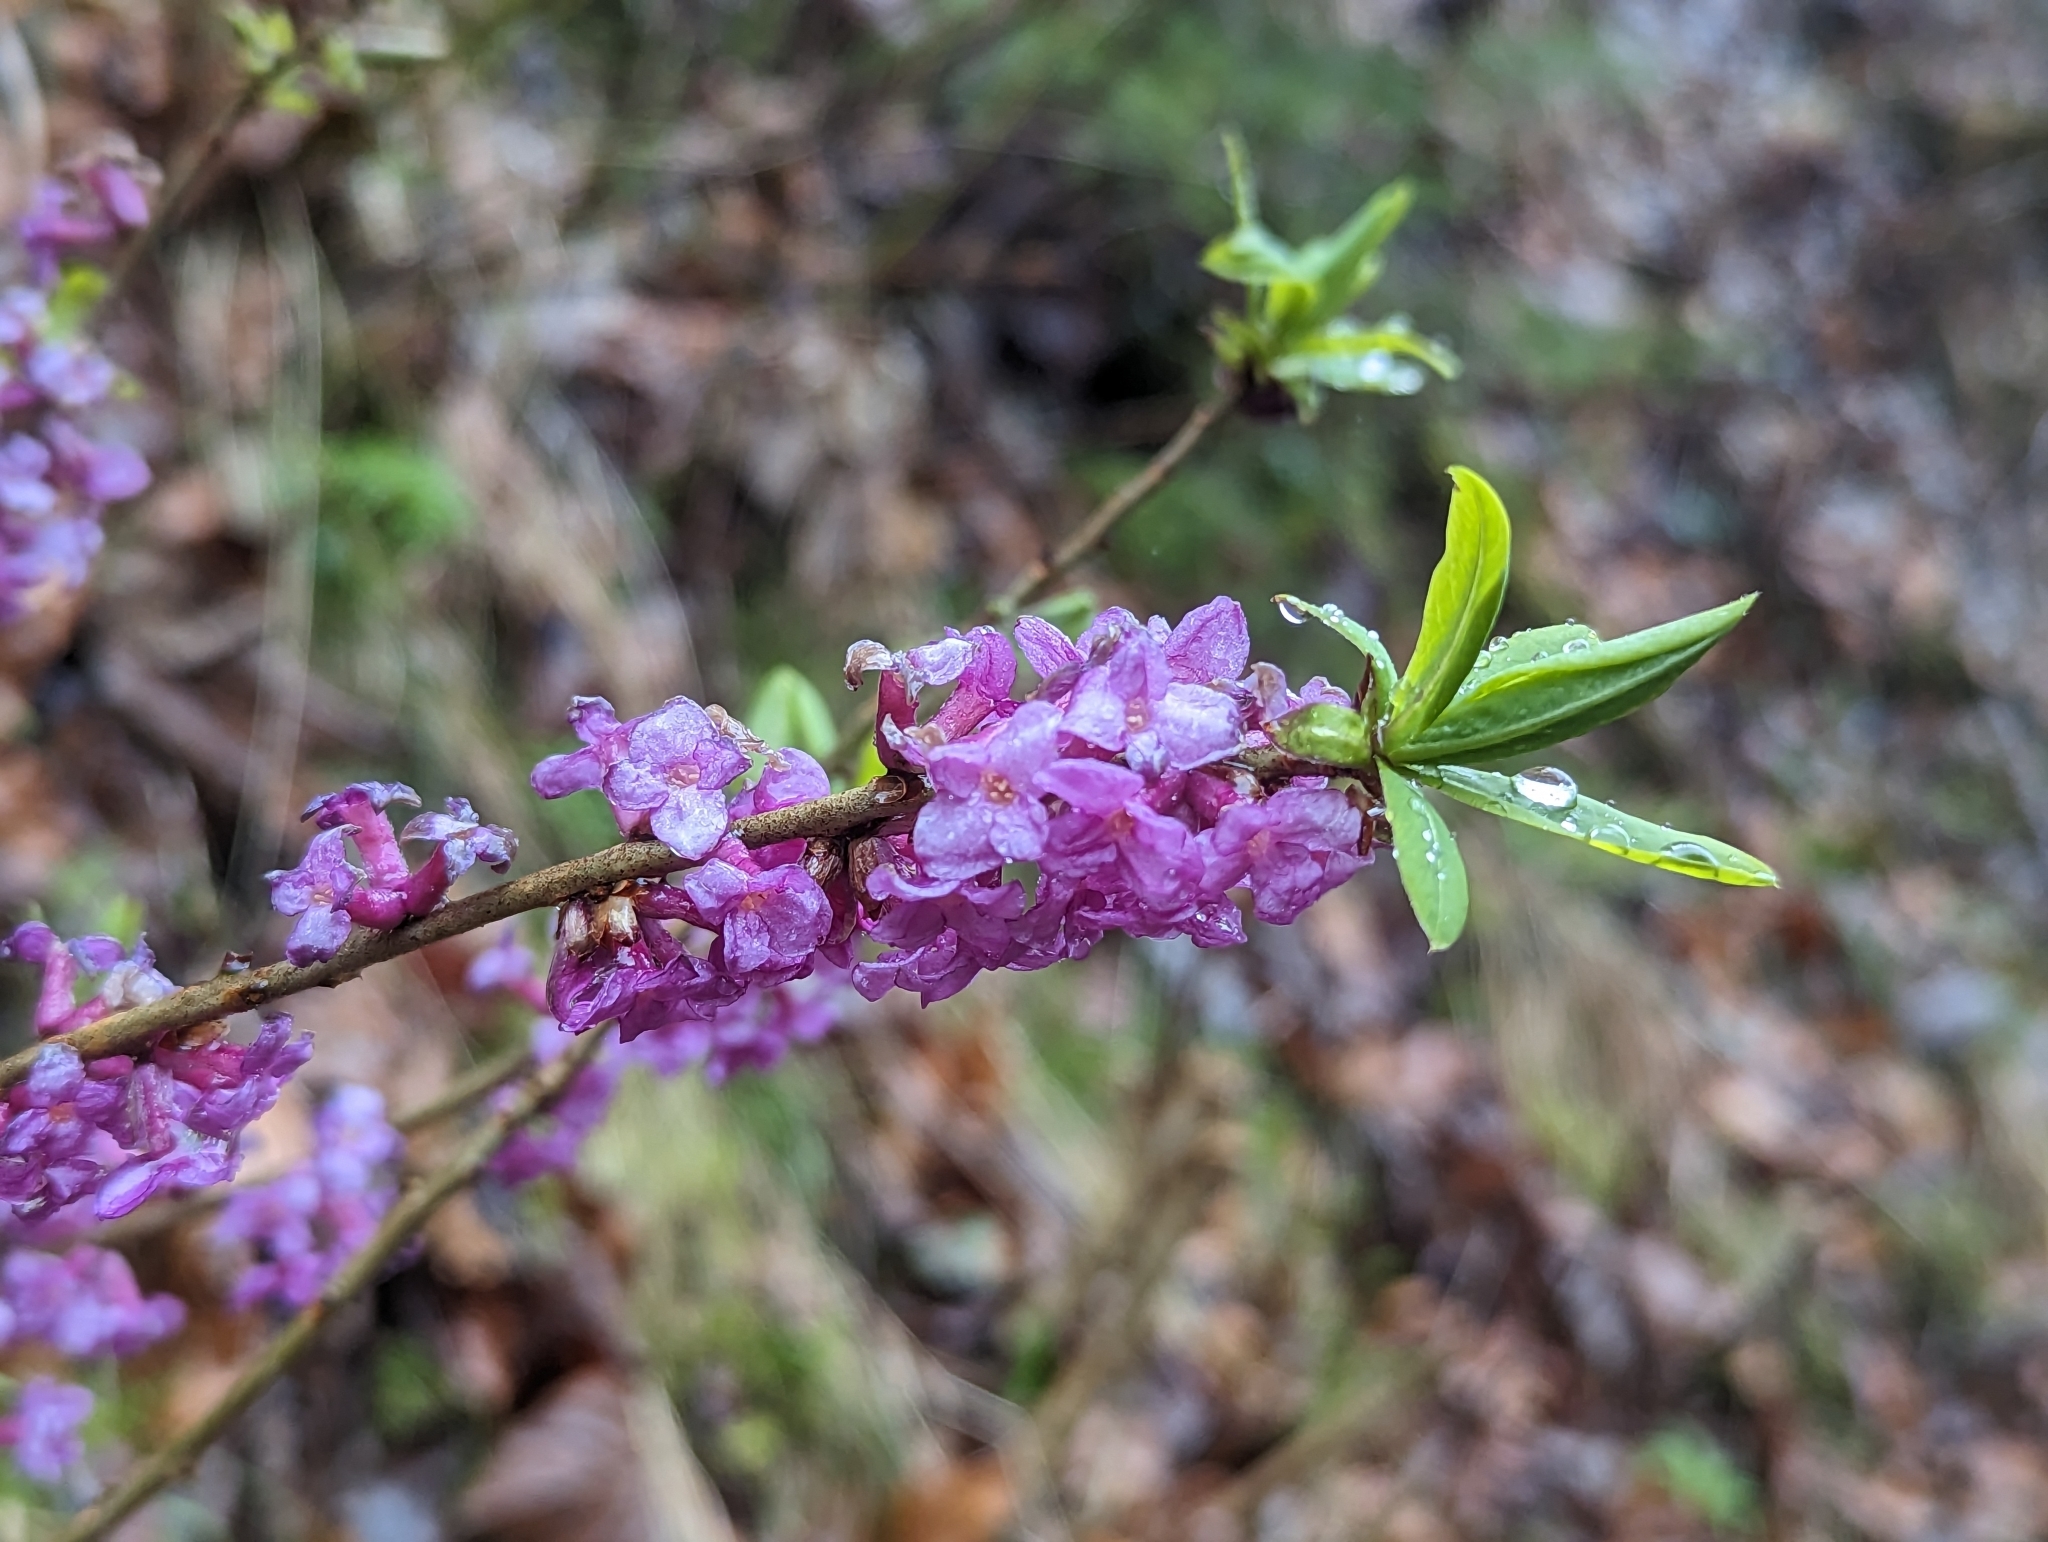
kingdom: Plantae
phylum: Tracheophyta
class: Magnoliopsida
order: Malvales
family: Thymelaeaceae
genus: Daphne
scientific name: Daphne mezereum
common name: Mezereon
